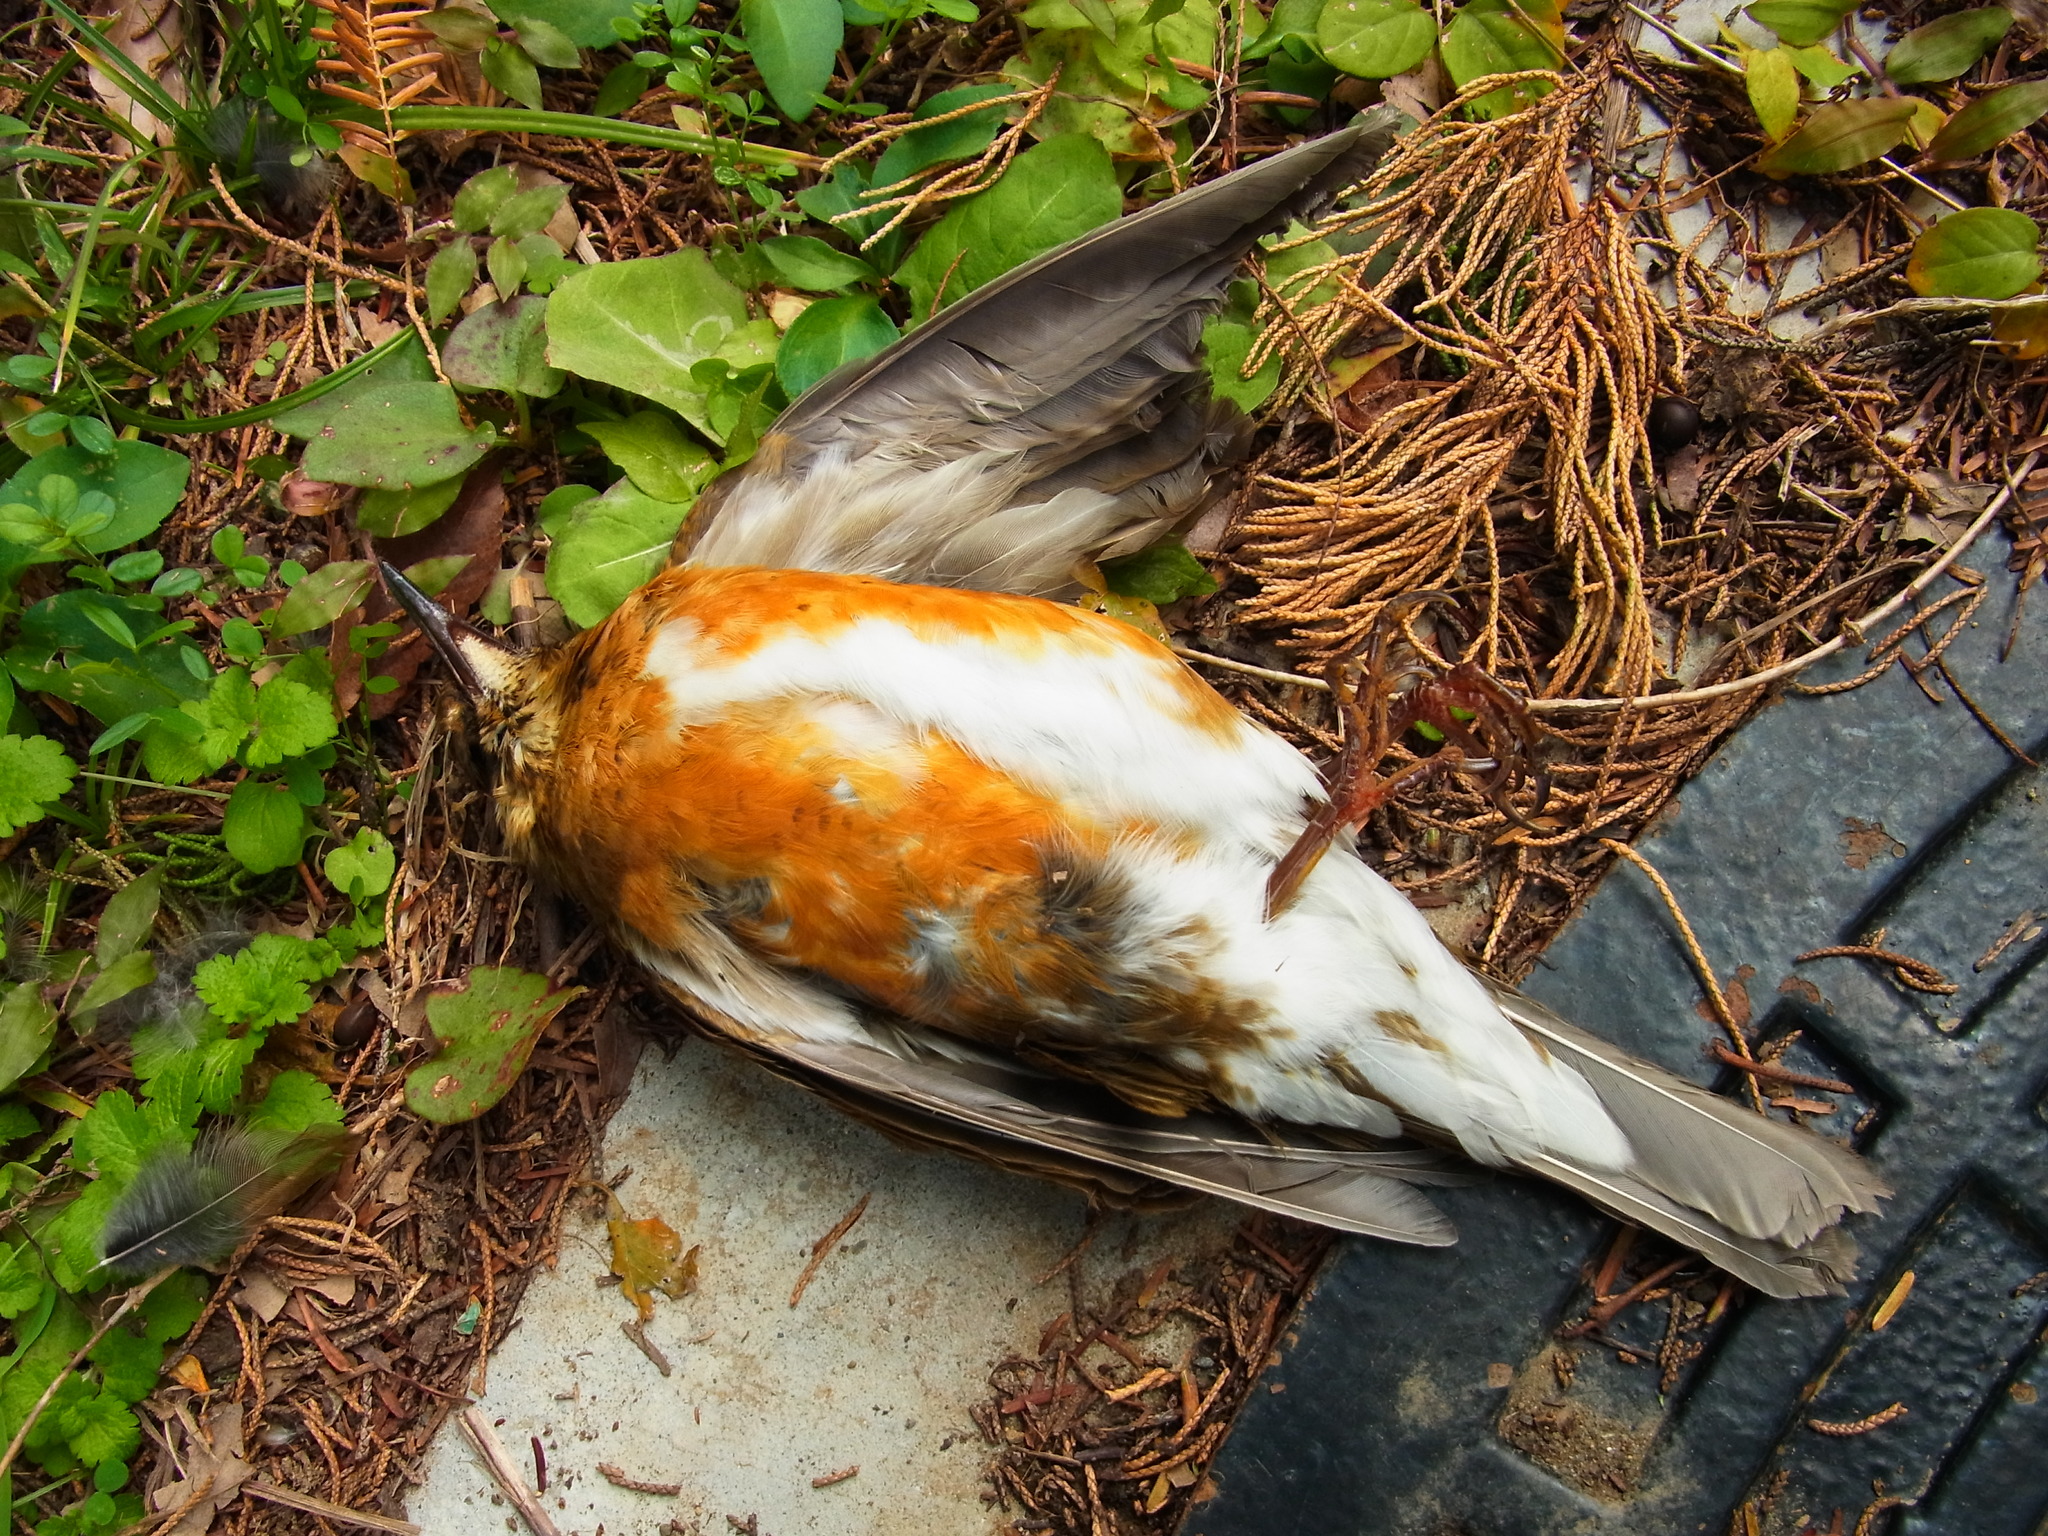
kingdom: Animalia
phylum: Chordata
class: Aves
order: Passeriformes
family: Turdidae
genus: Turdus
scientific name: Turdus chrysolaus
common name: Brown-headed thrush
